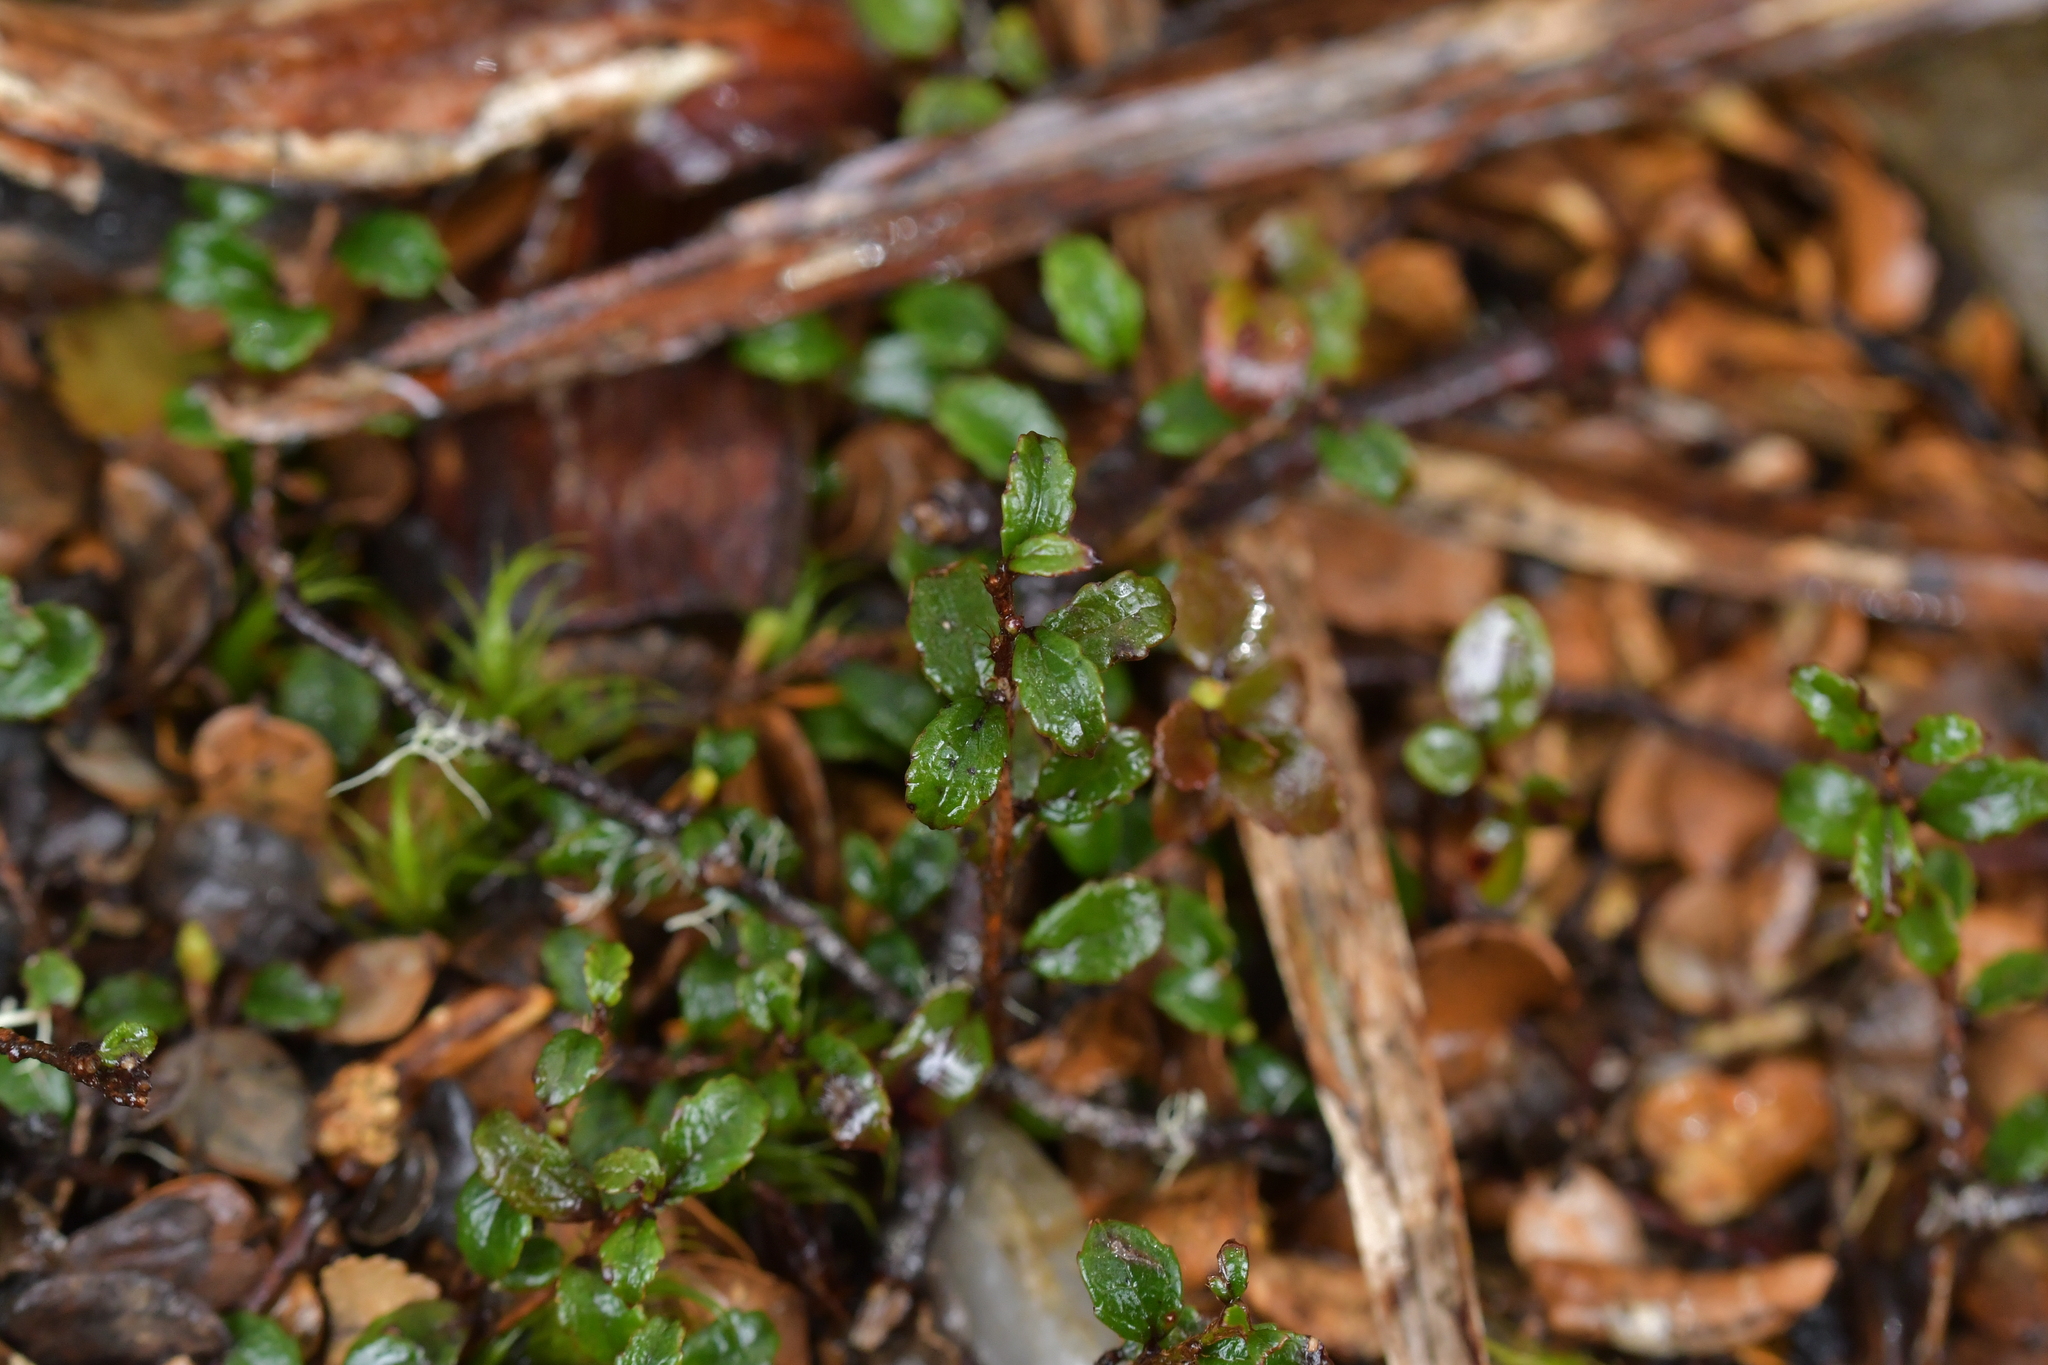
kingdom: Plantae
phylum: Tracheophyta
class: Magnoliopsida
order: Ericales
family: Ericaceae
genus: Gaultheria
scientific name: Gaultheria depressa
